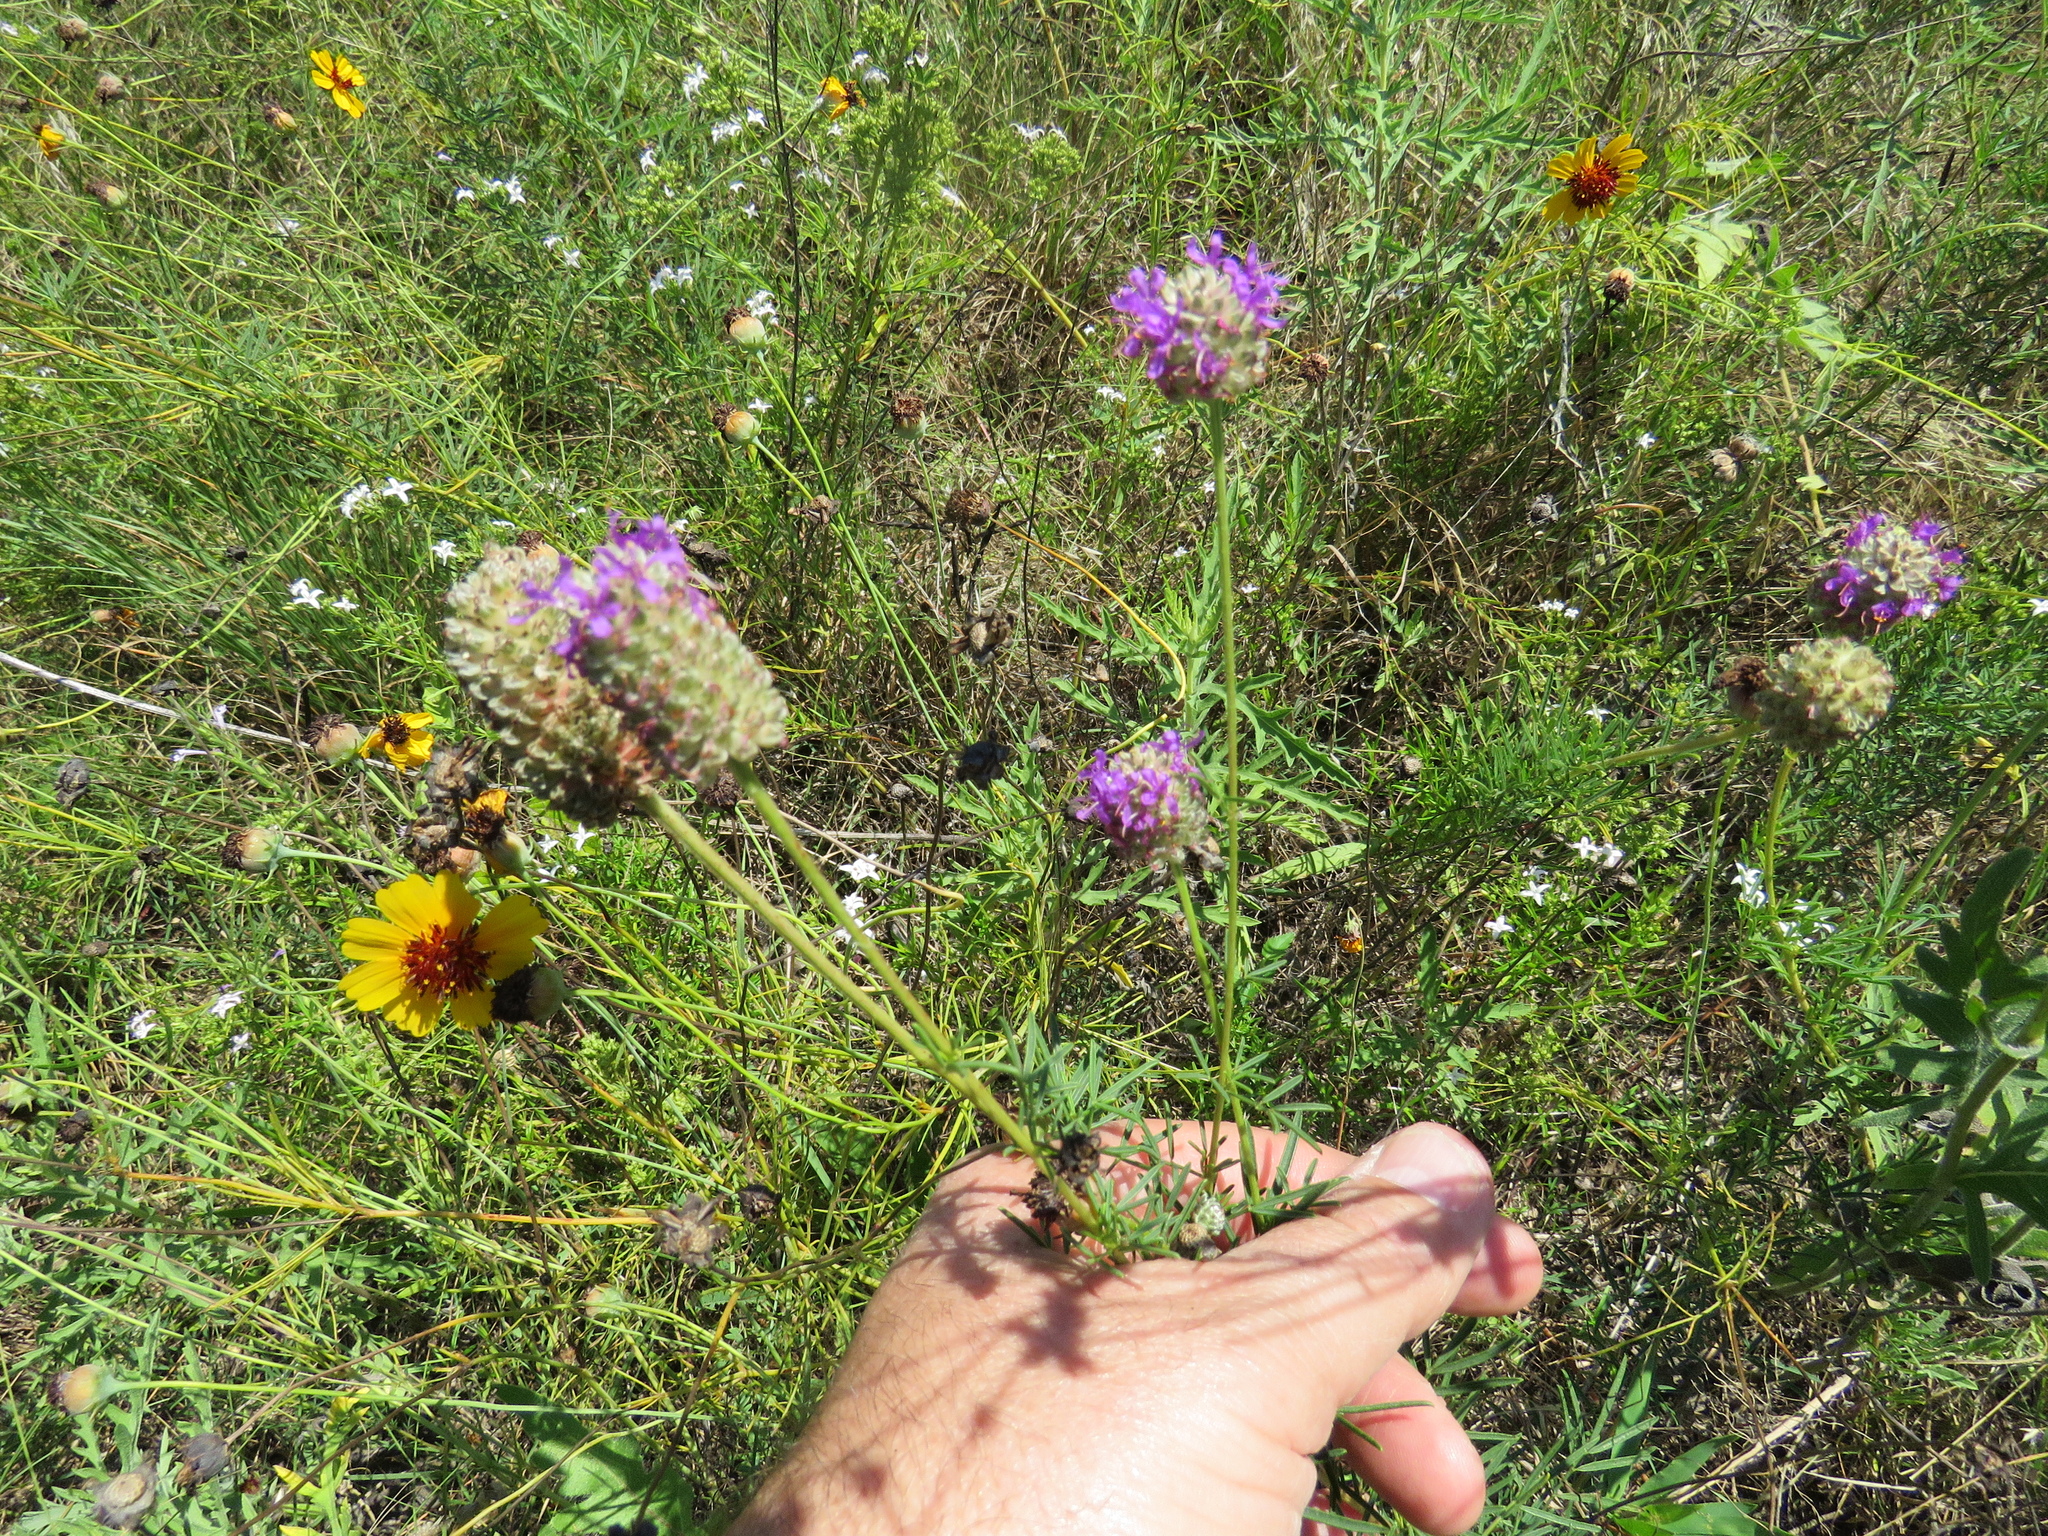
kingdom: Plantae
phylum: Tracheophyta
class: Magnoliopsida
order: Fabales
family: Fabaceae
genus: Dalea
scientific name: Dalea compacta
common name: Compact prairie-clover
